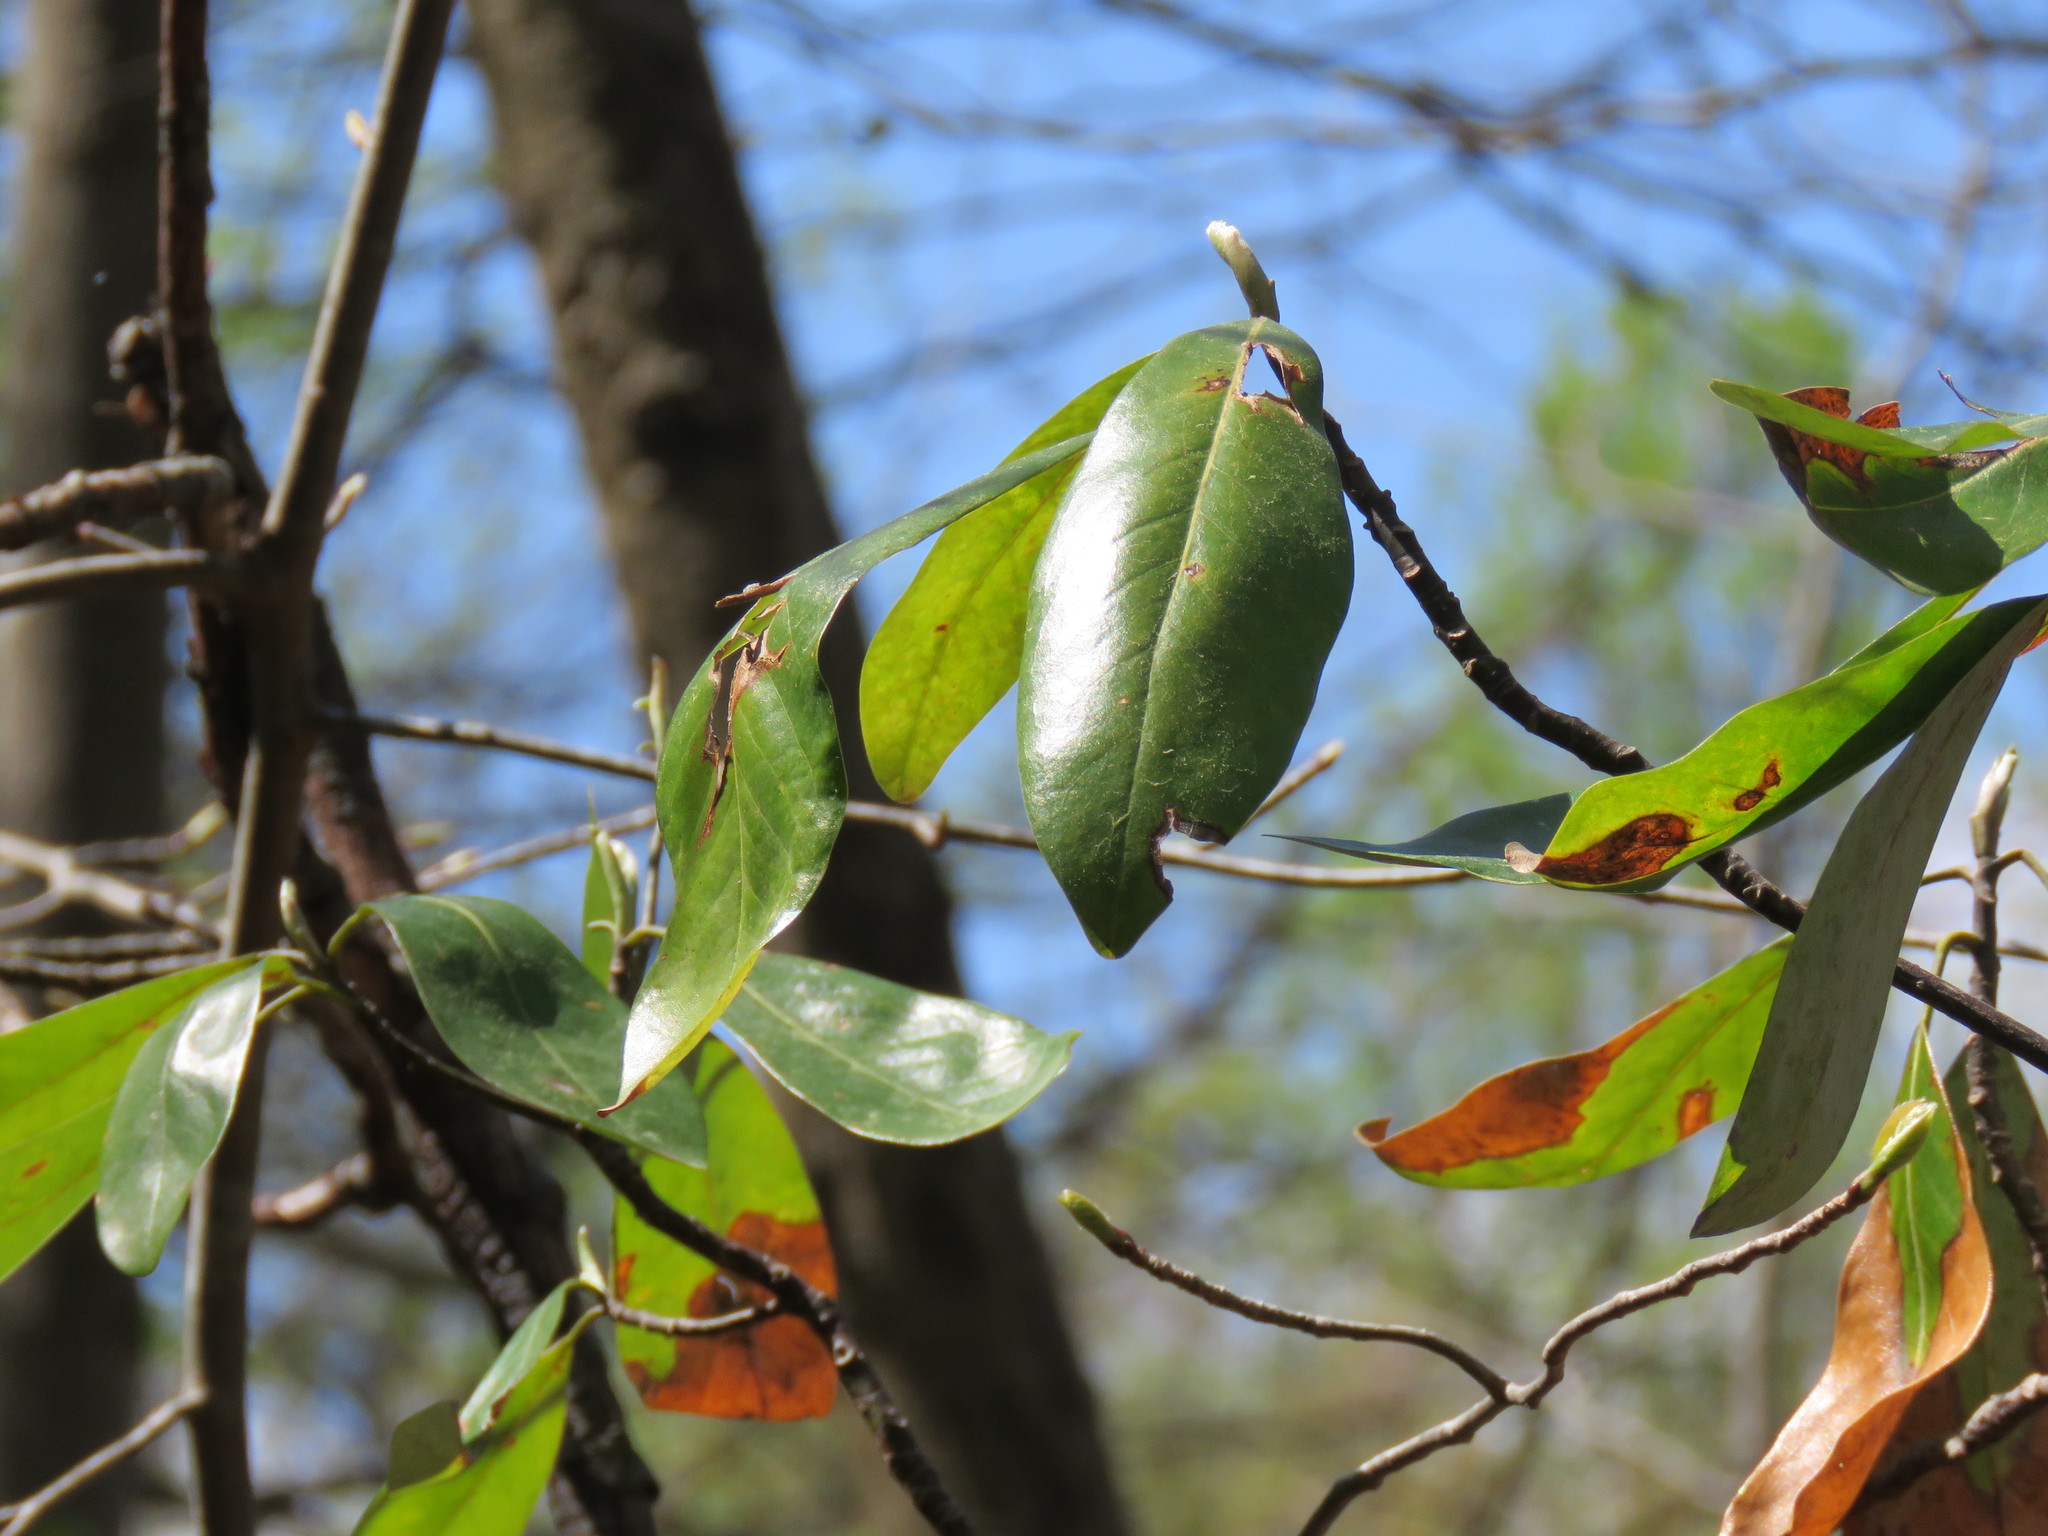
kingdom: Plantae
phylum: Tracheophyta
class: Magnoliopsida
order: Magnoliales
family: Magnoliaceae
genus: Magnolia
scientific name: Magnolia virginiana
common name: Swamp bay
